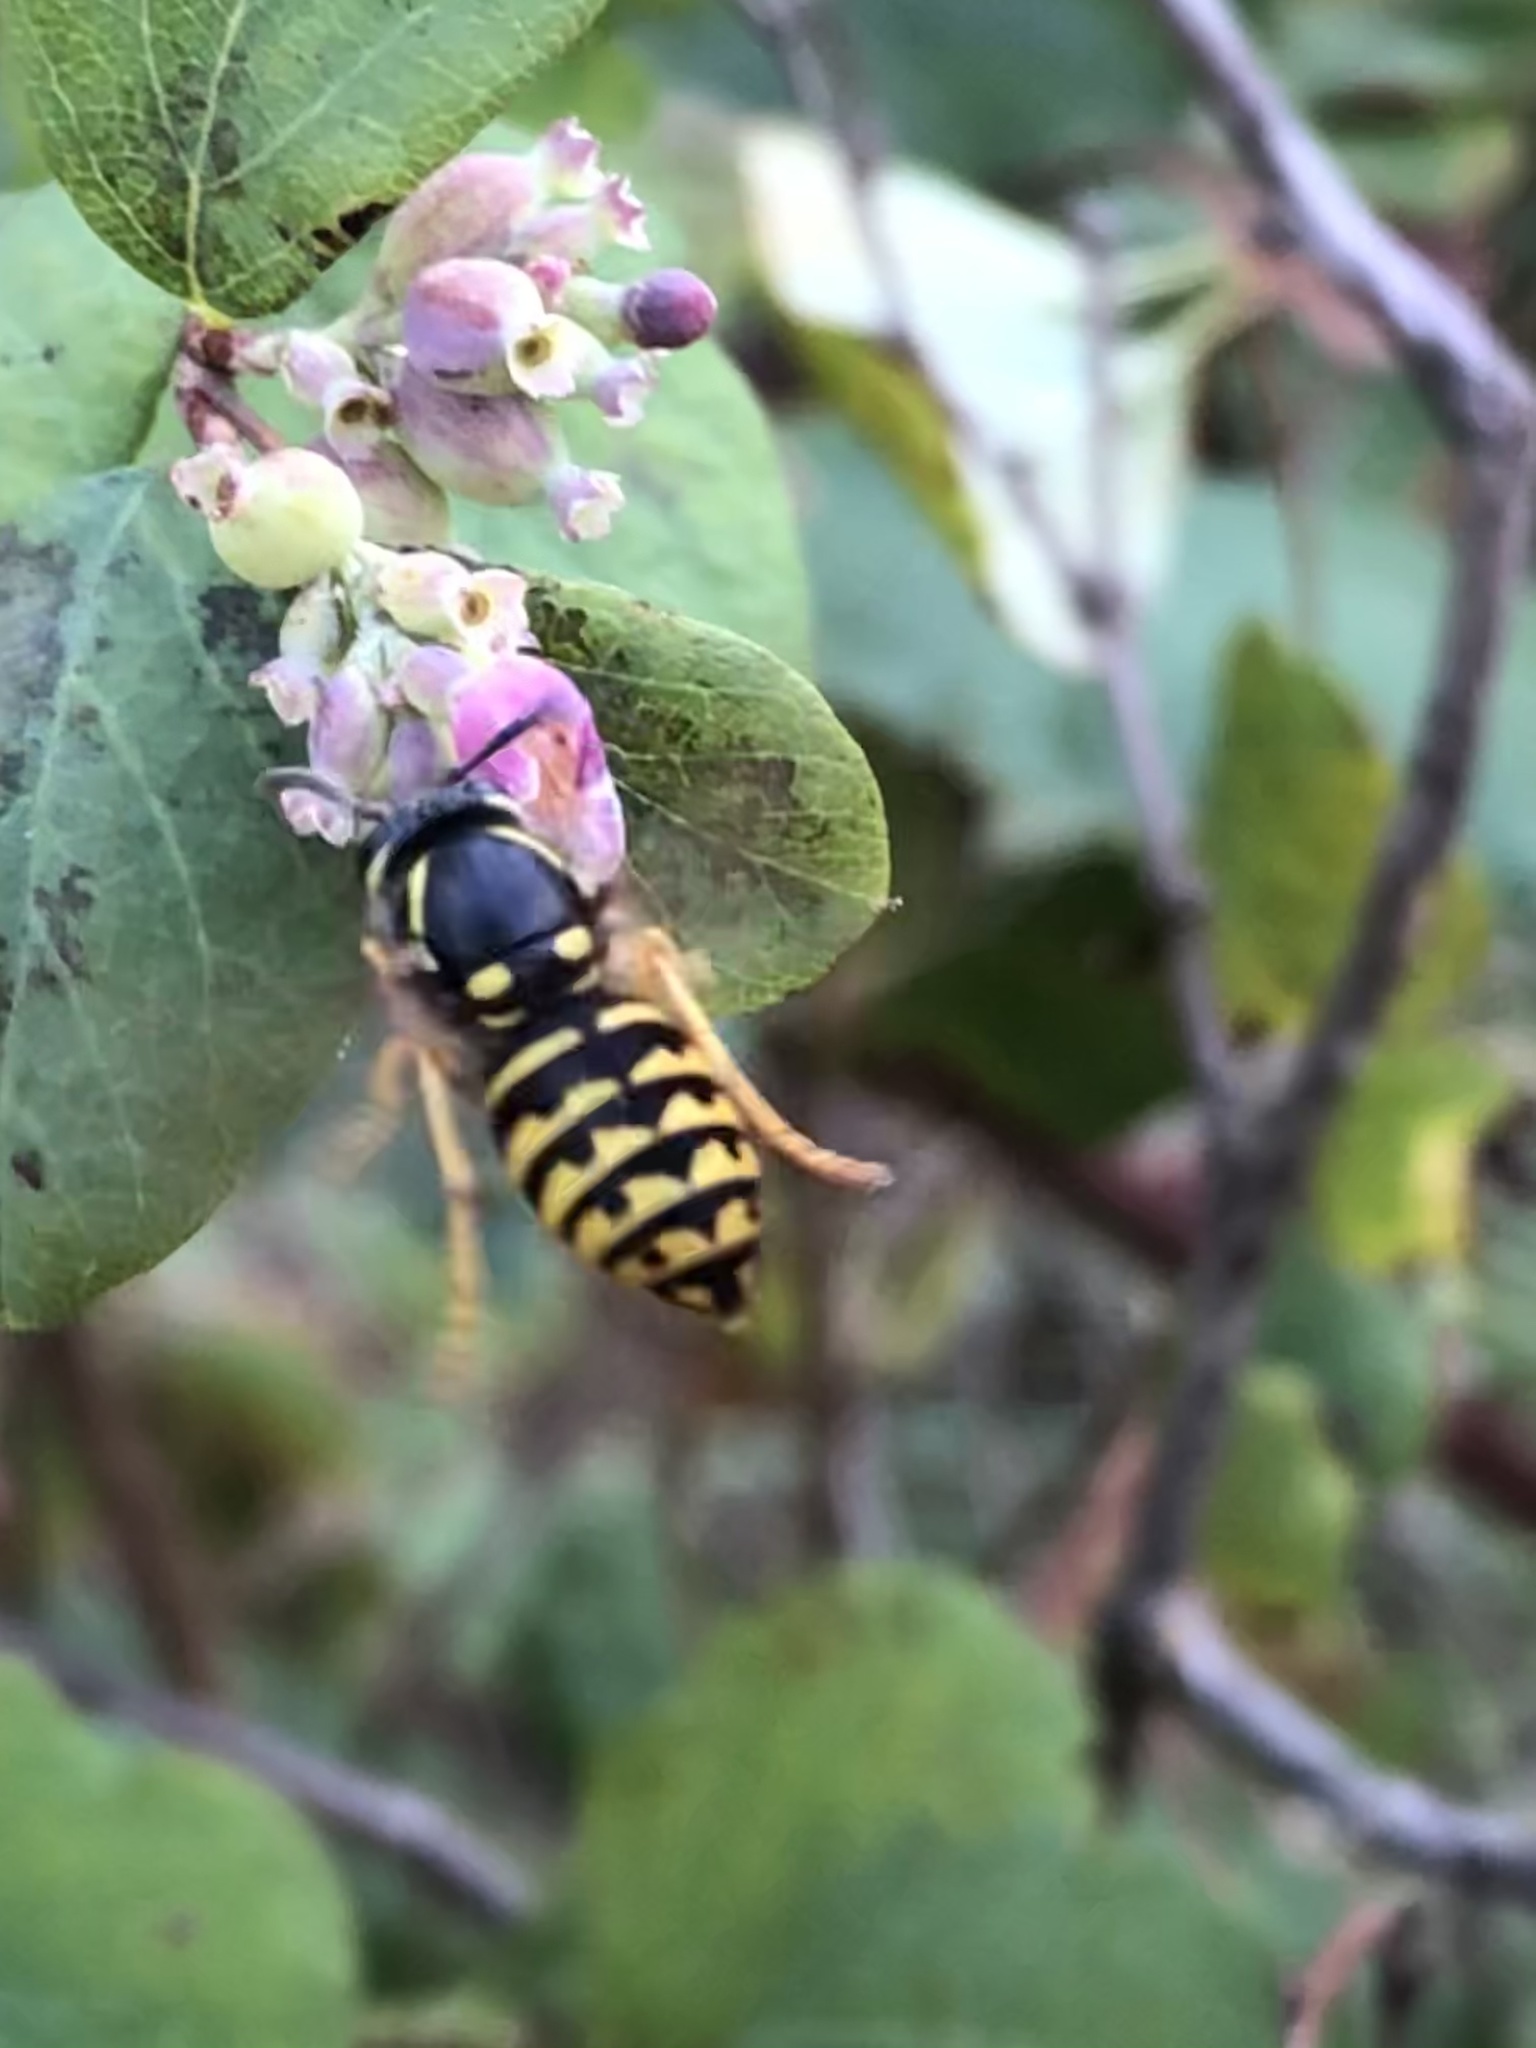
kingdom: Animalia
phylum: Arthropoda
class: Insecta
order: Hymenoptera
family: Vespidae
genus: Dolichovespula
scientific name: Dolichovespula arenaria
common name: Aerial yellowjacket
